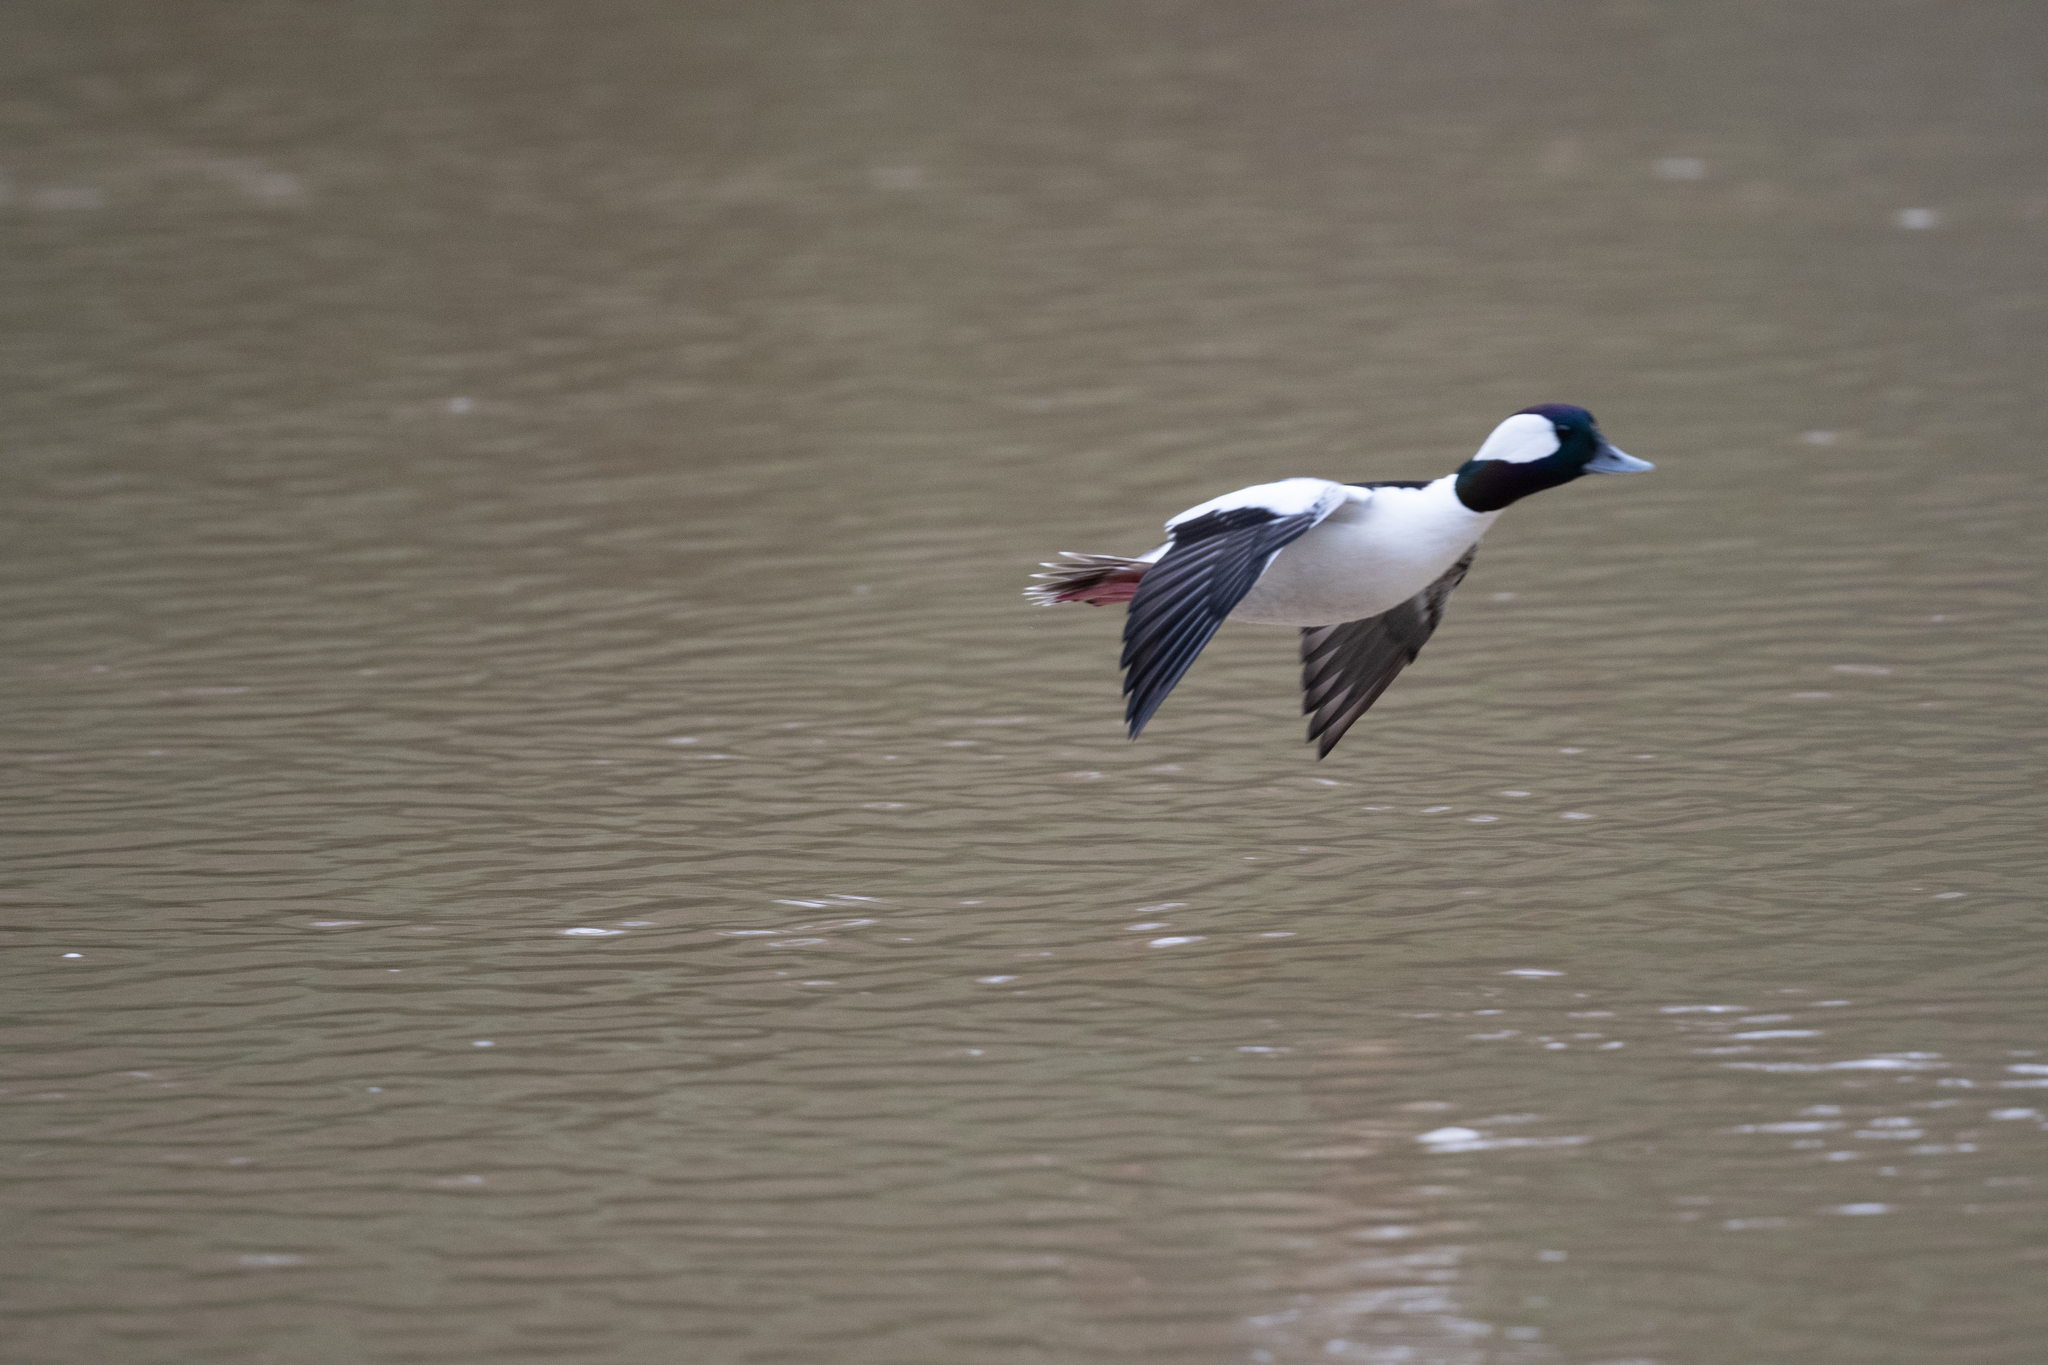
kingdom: Animalia
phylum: Chordata
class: Aves
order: Anseriformes
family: Anatidae
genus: Bucephala
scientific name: Bucephala albeola
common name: Bufflehead
